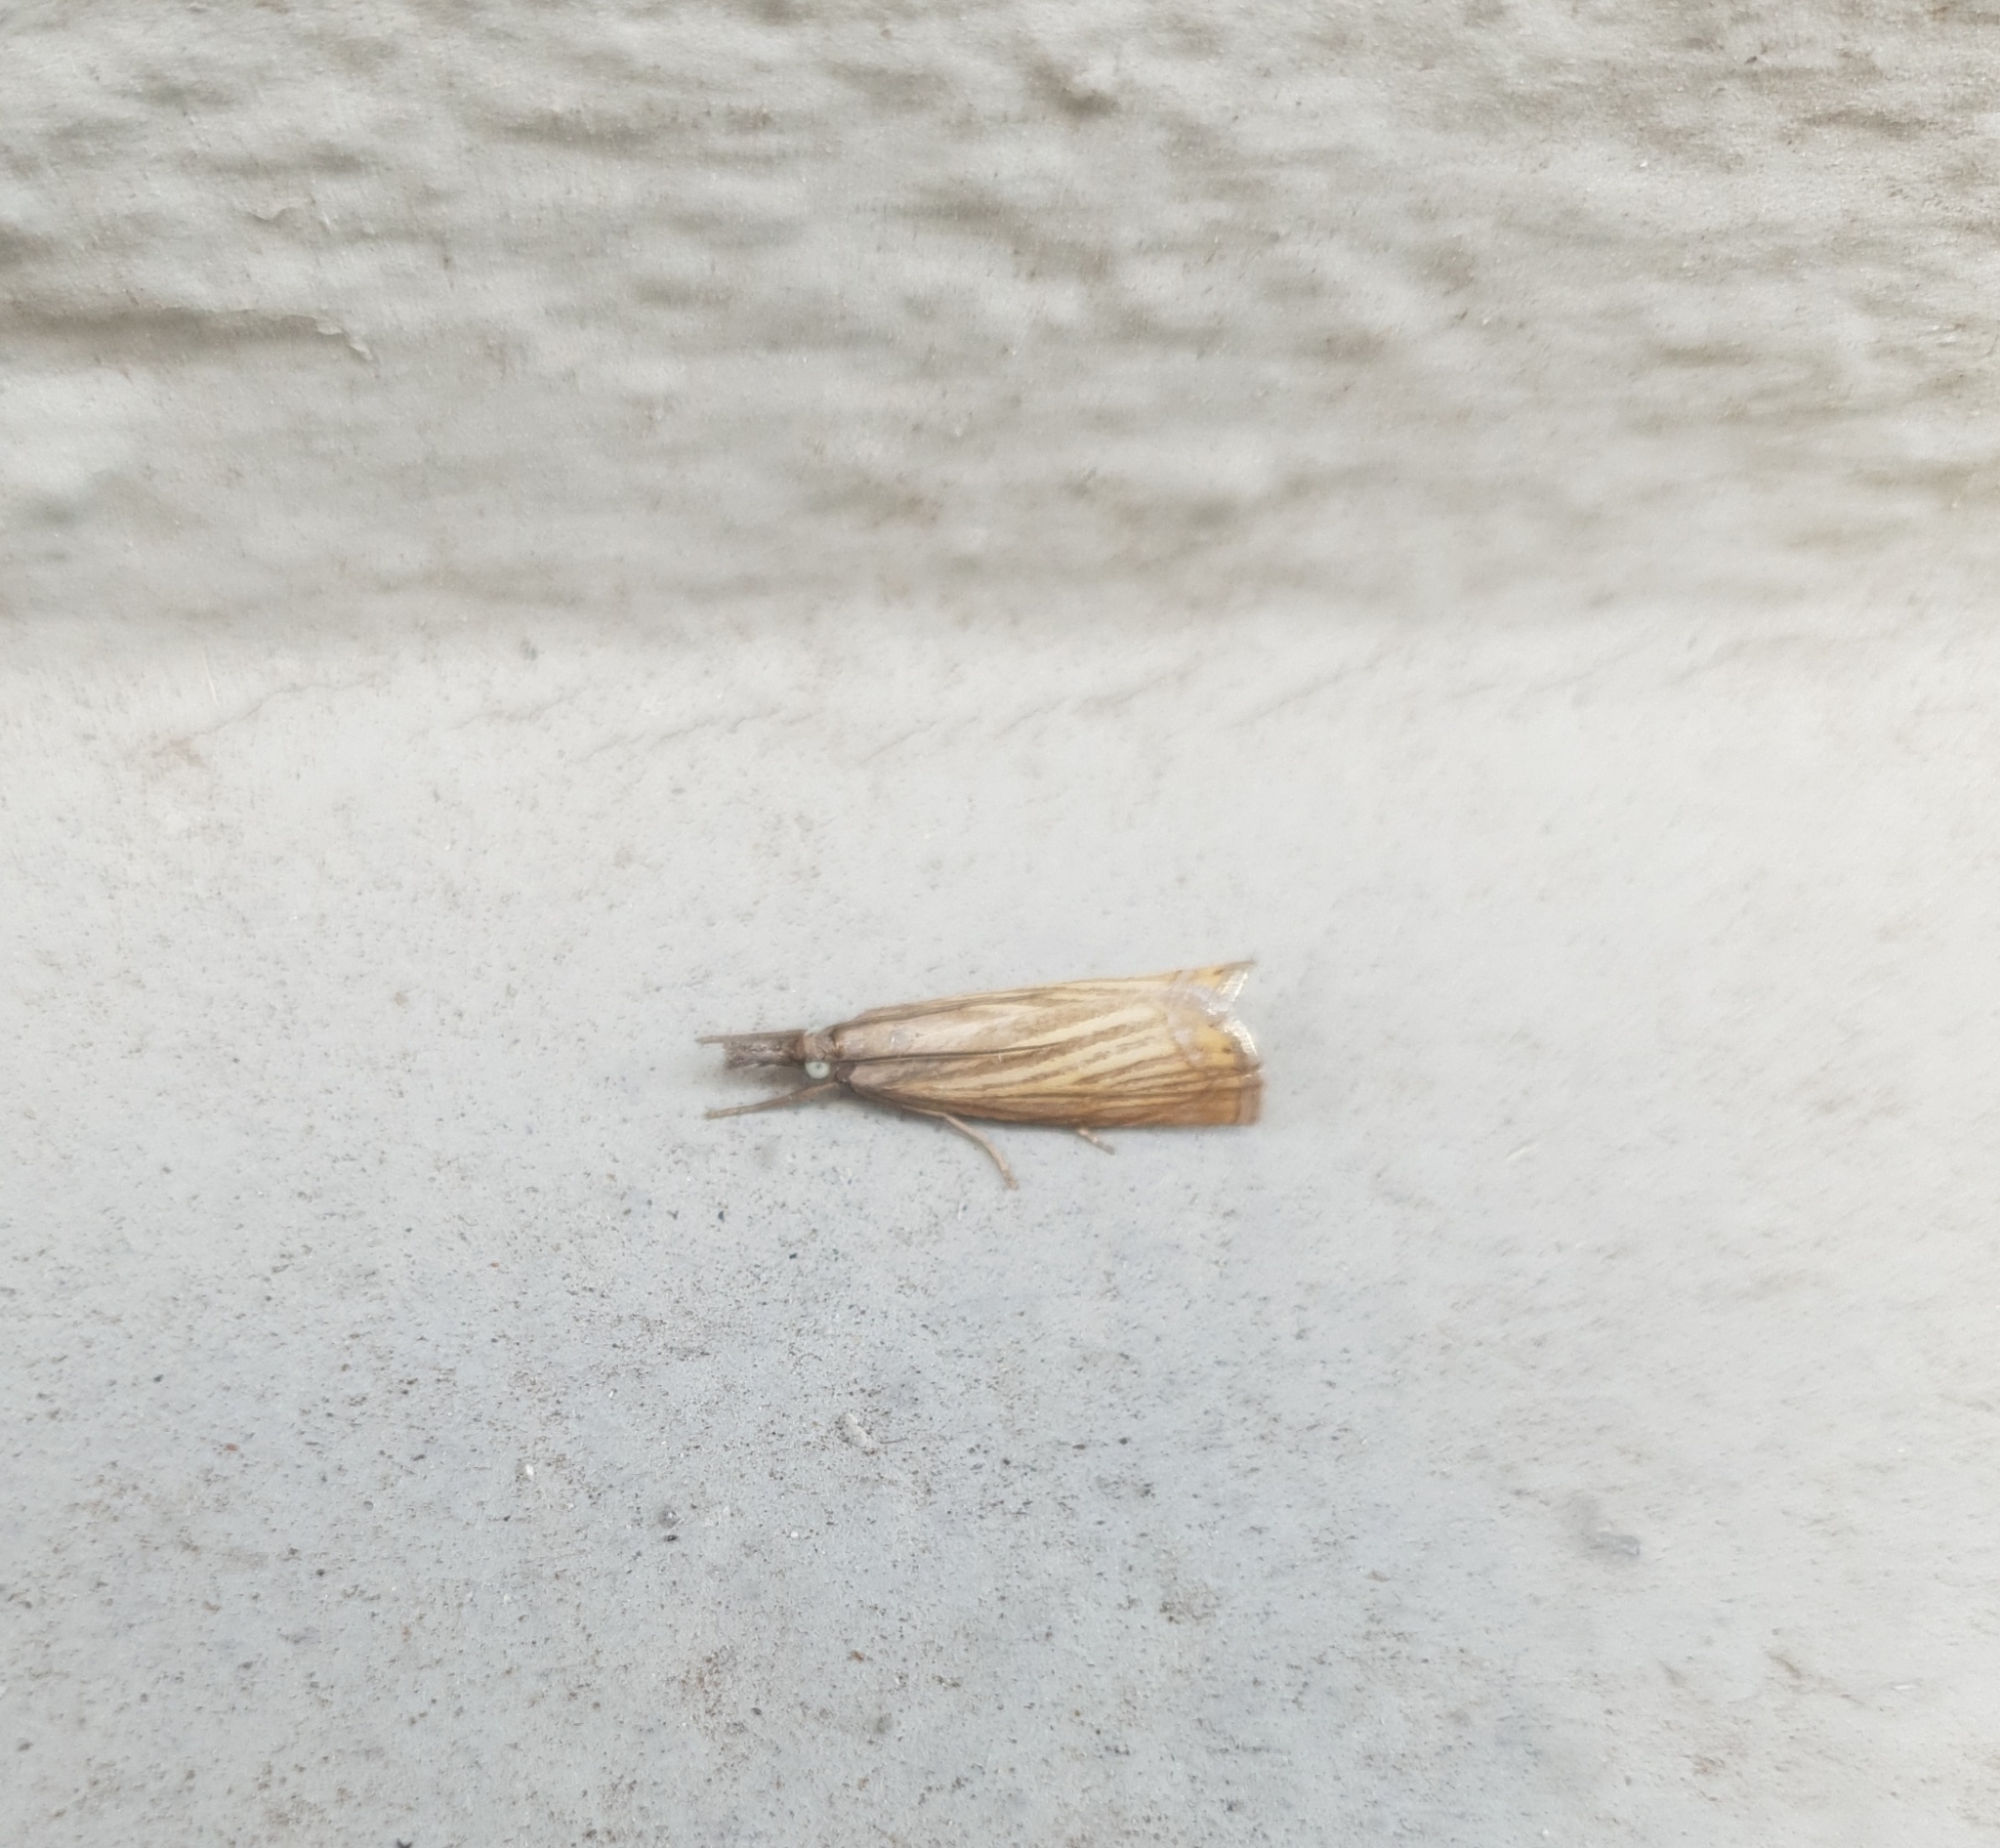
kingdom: Animalia
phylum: Arthropoda
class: Insecta
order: Lepidoptera
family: Crambidae
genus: Chrysoteuchia
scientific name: Chrysoteuchia culmella
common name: Garden grass-veneer
